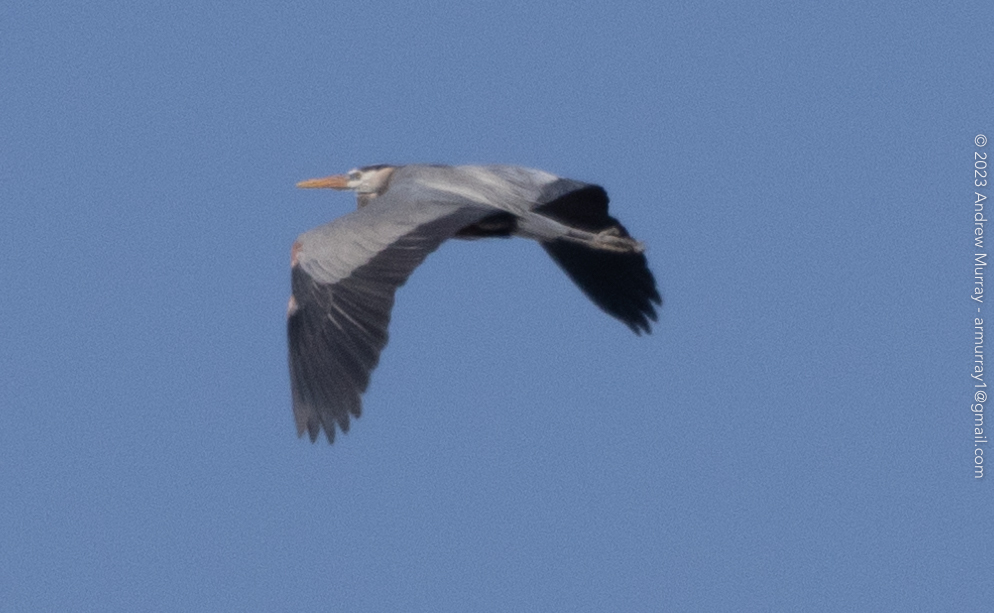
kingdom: Animalia
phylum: Chordata
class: Aves
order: Pelecaniformes
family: Ardeidae
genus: Ardea
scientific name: Ardea herodias
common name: Great blue heron
